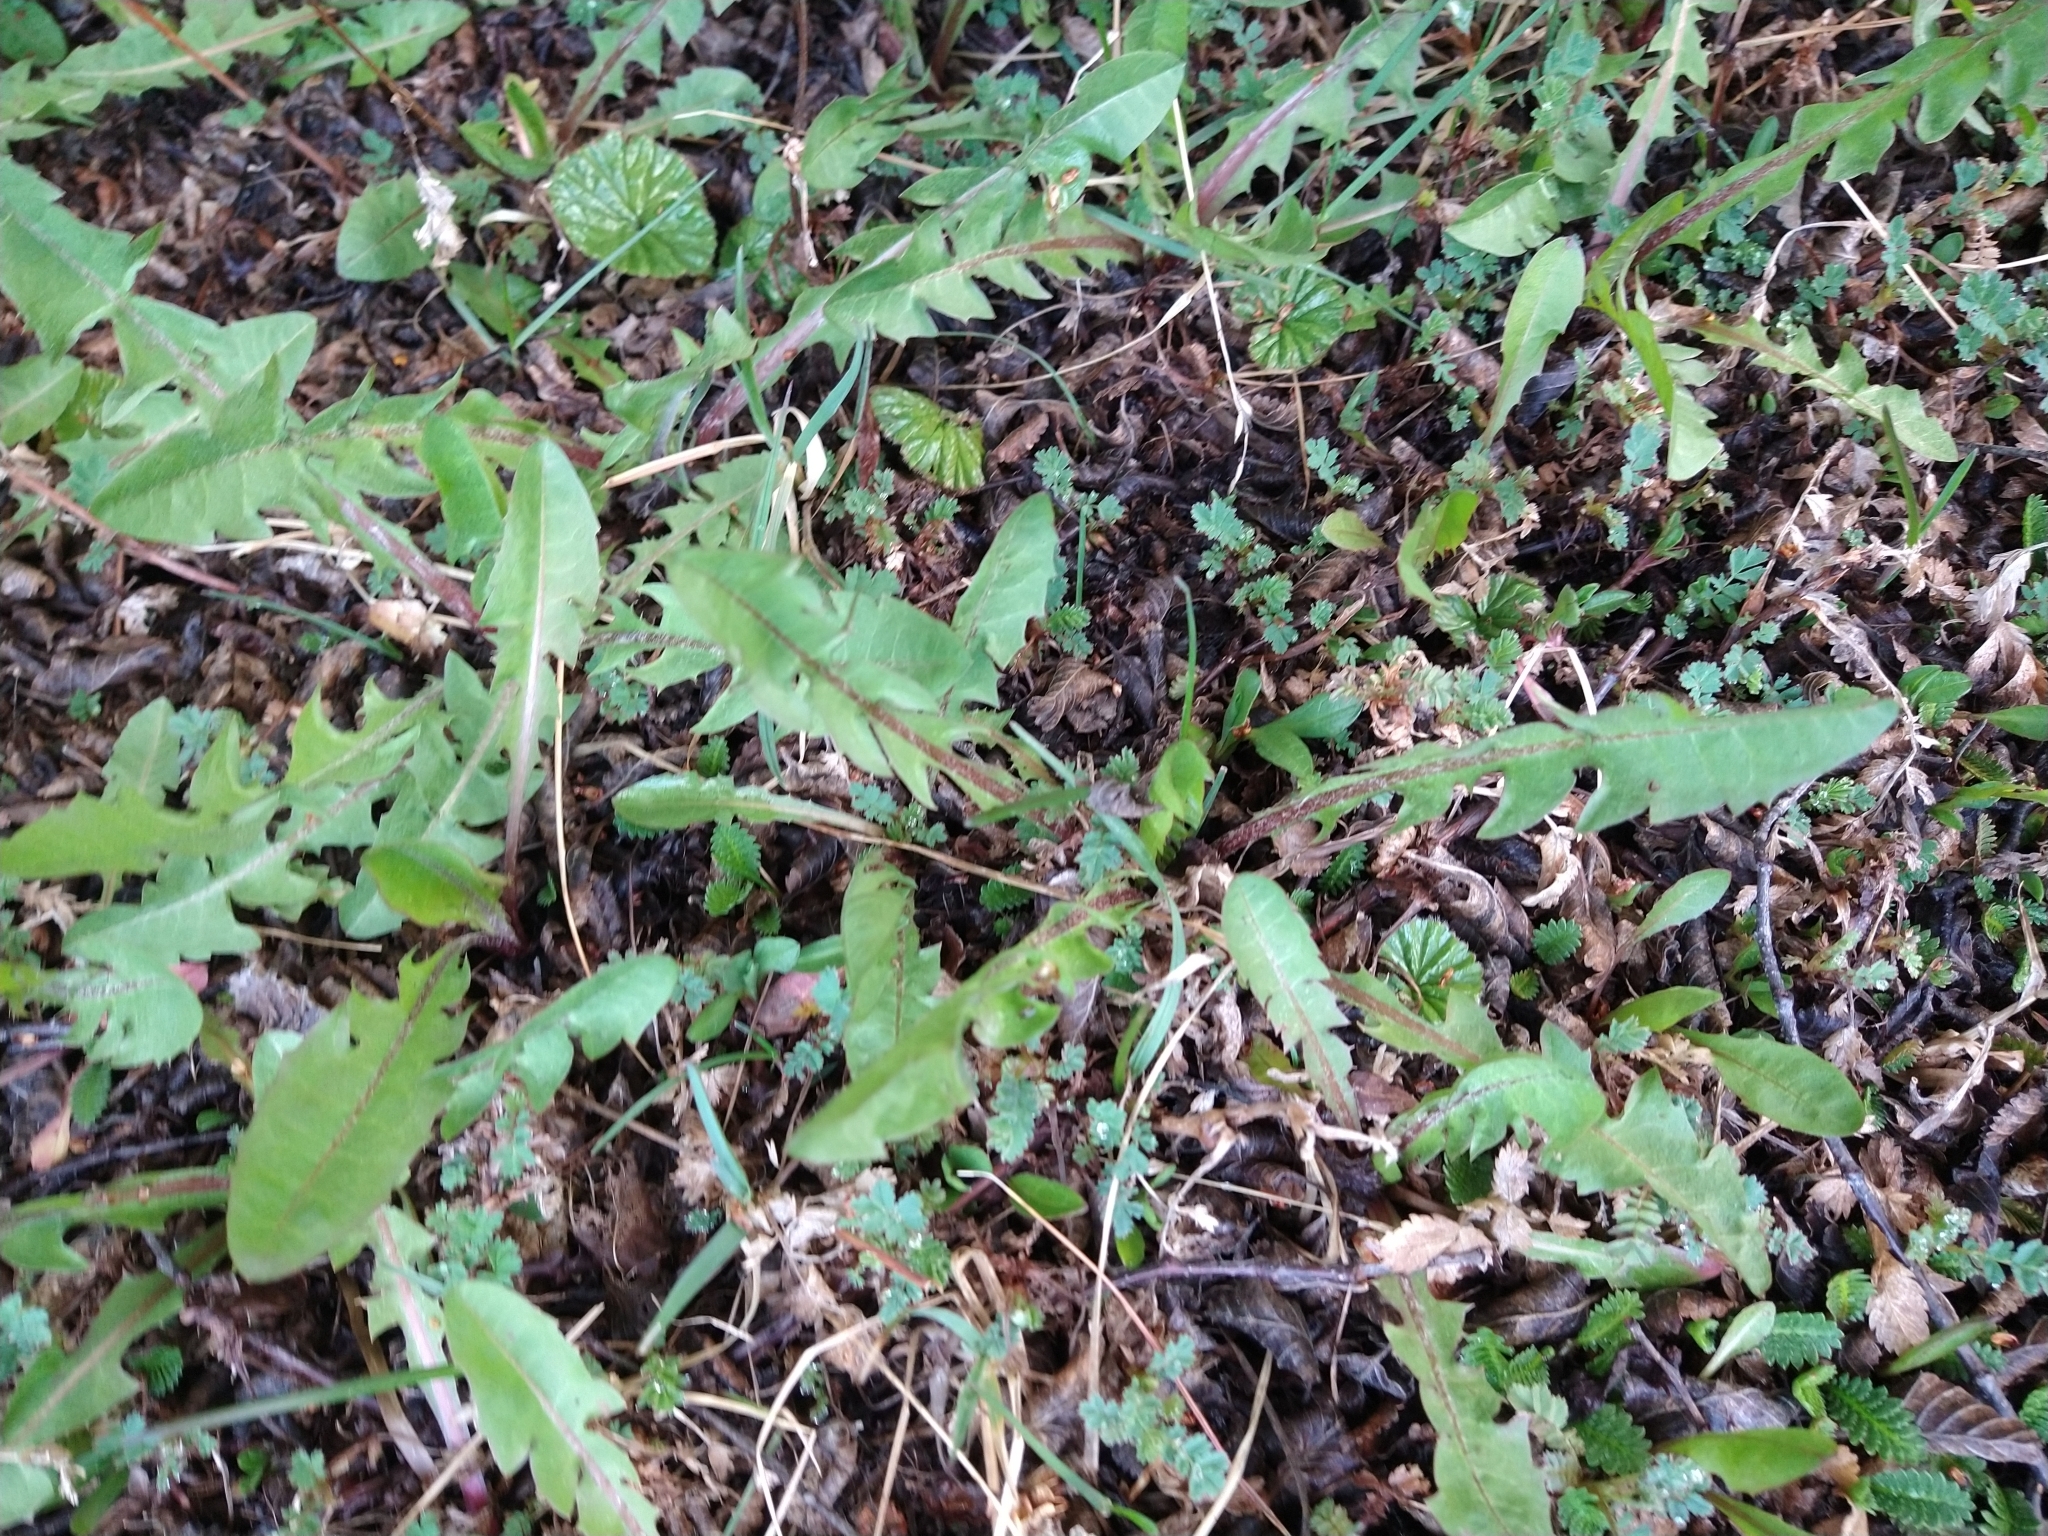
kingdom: Plantae
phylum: Tracheophyta
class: Magnoliopsida
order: Asterales
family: Asteraceae
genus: Taraxacum
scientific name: Taraxacum officinale
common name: Common dandelion
